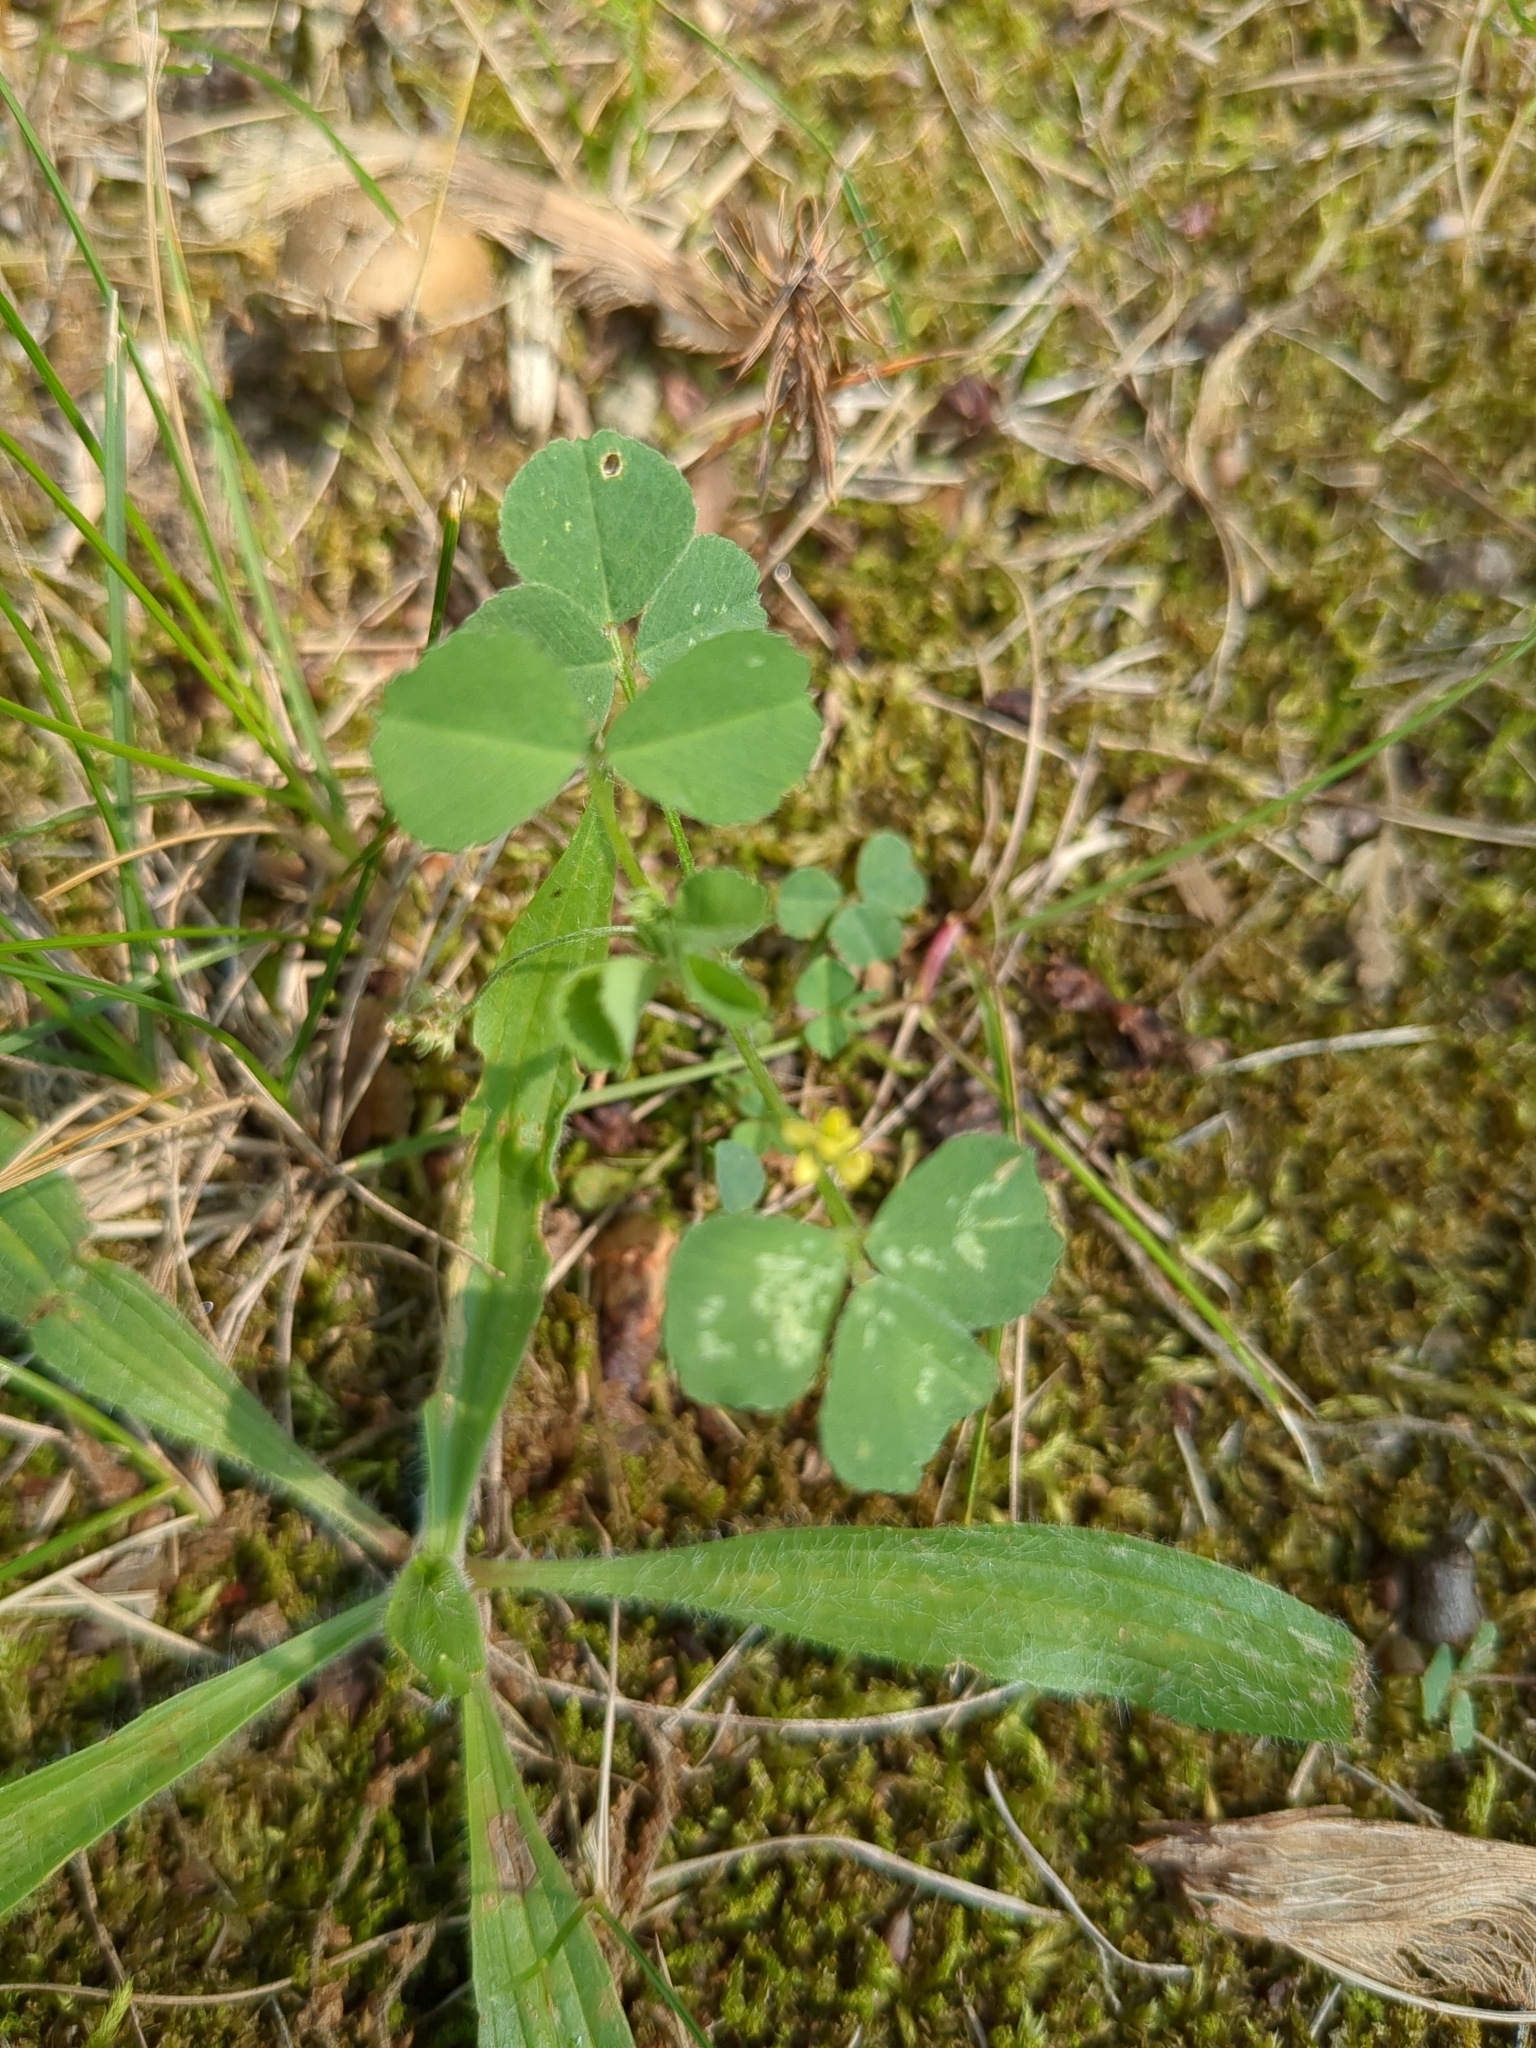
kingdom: Plantae
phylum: Tracheophyta
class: Magnoliopsida
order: Fabales
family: Fabaceae
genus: Medicago
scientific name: Medicago lupulina
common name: Black medick
